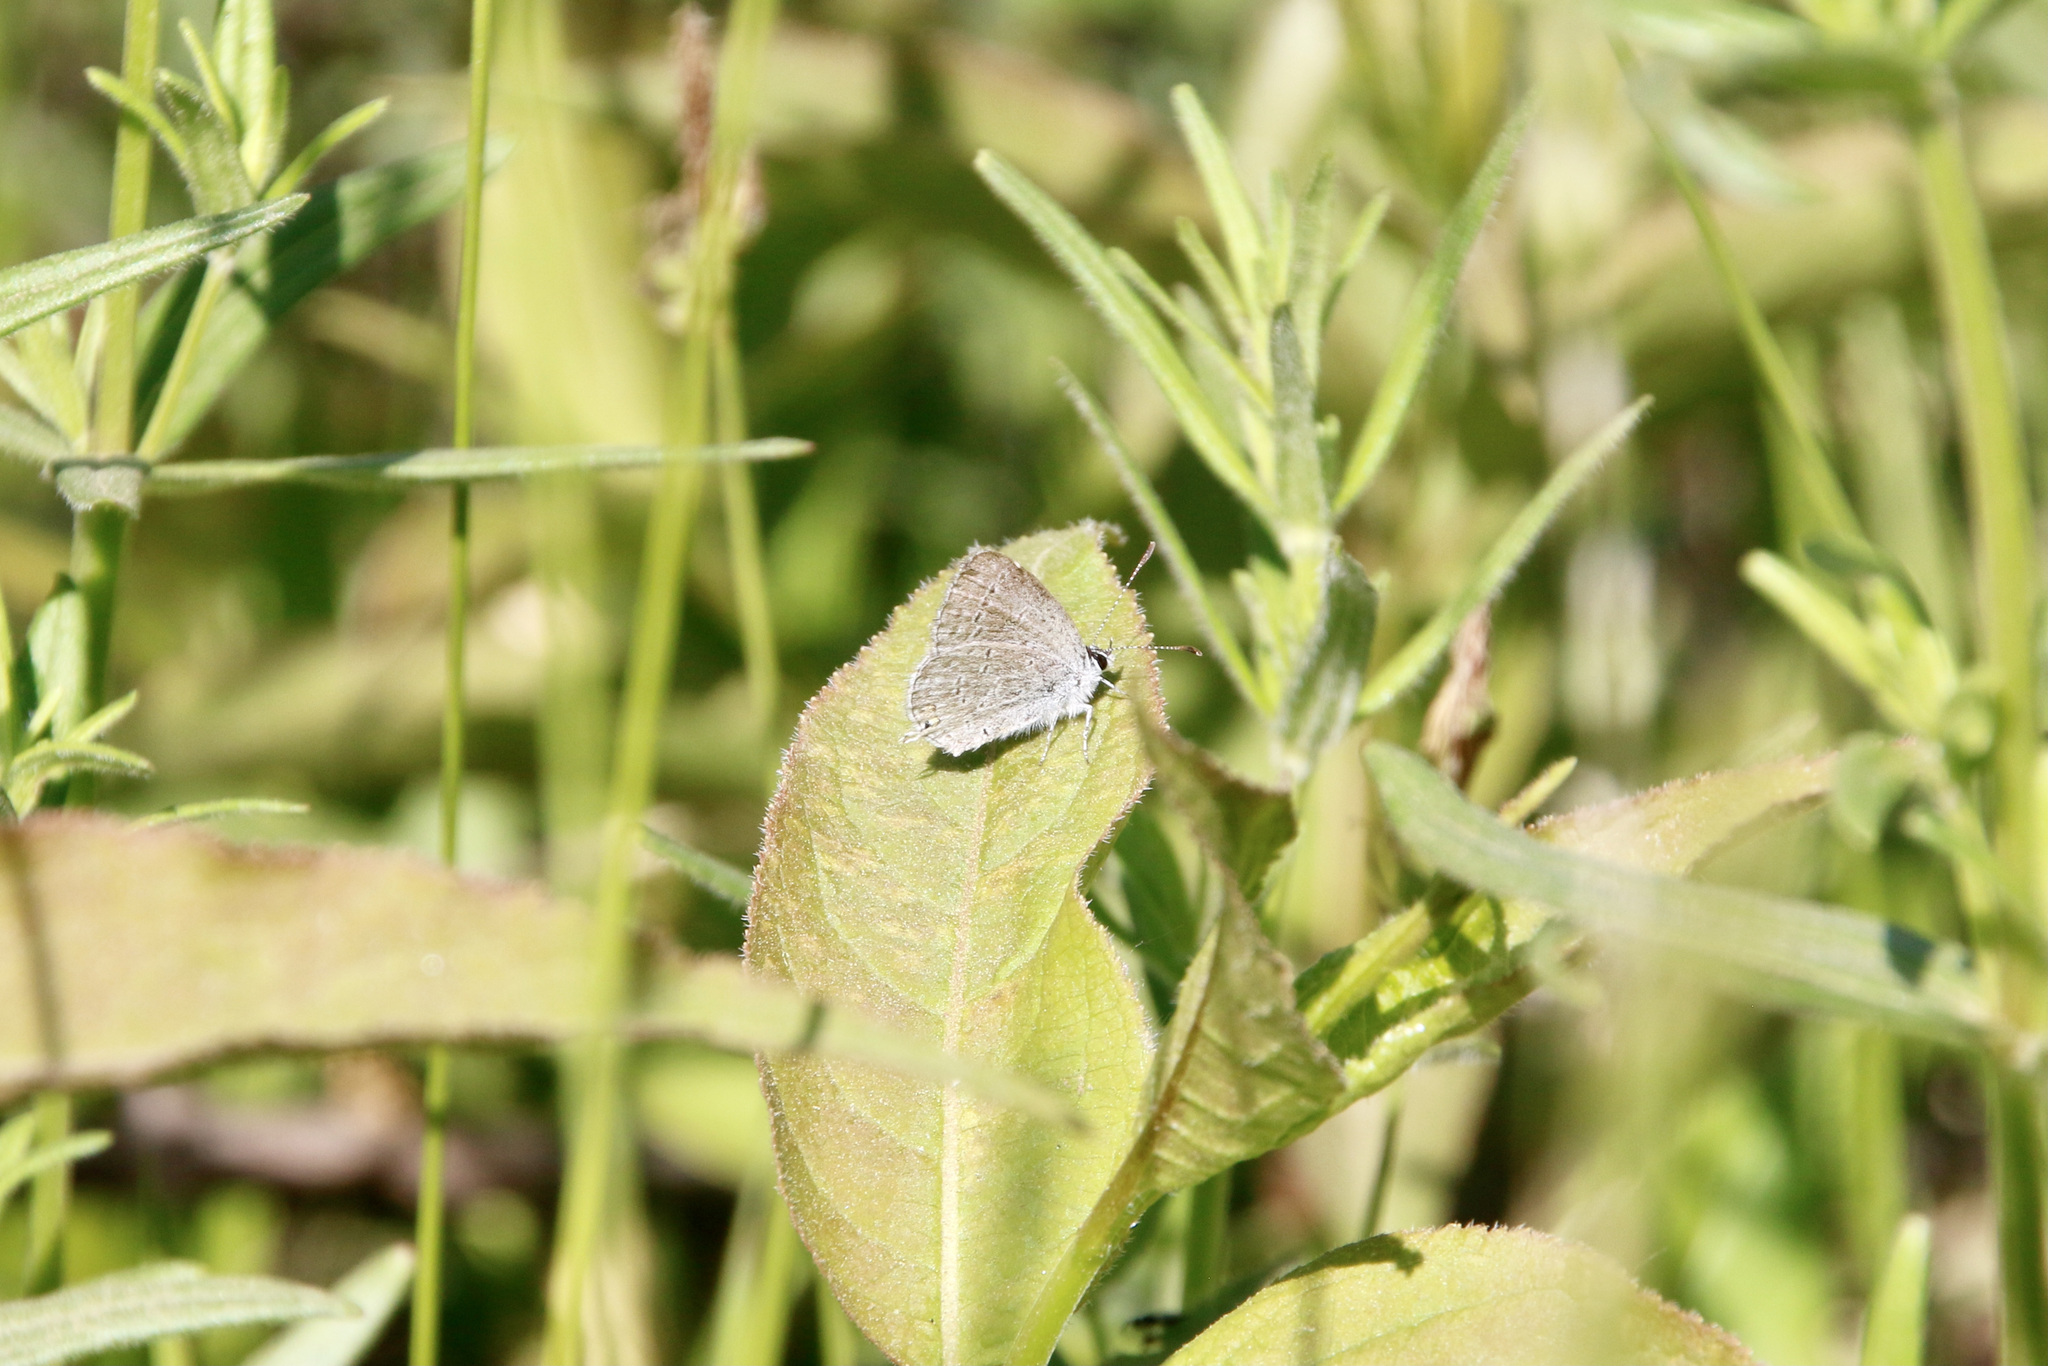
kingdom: Animalia
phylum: Arthropoda
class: Insecta
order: Lepidoptera
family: Lycaenidae
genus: Elkalyce
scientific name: Elkalyce amyntula
